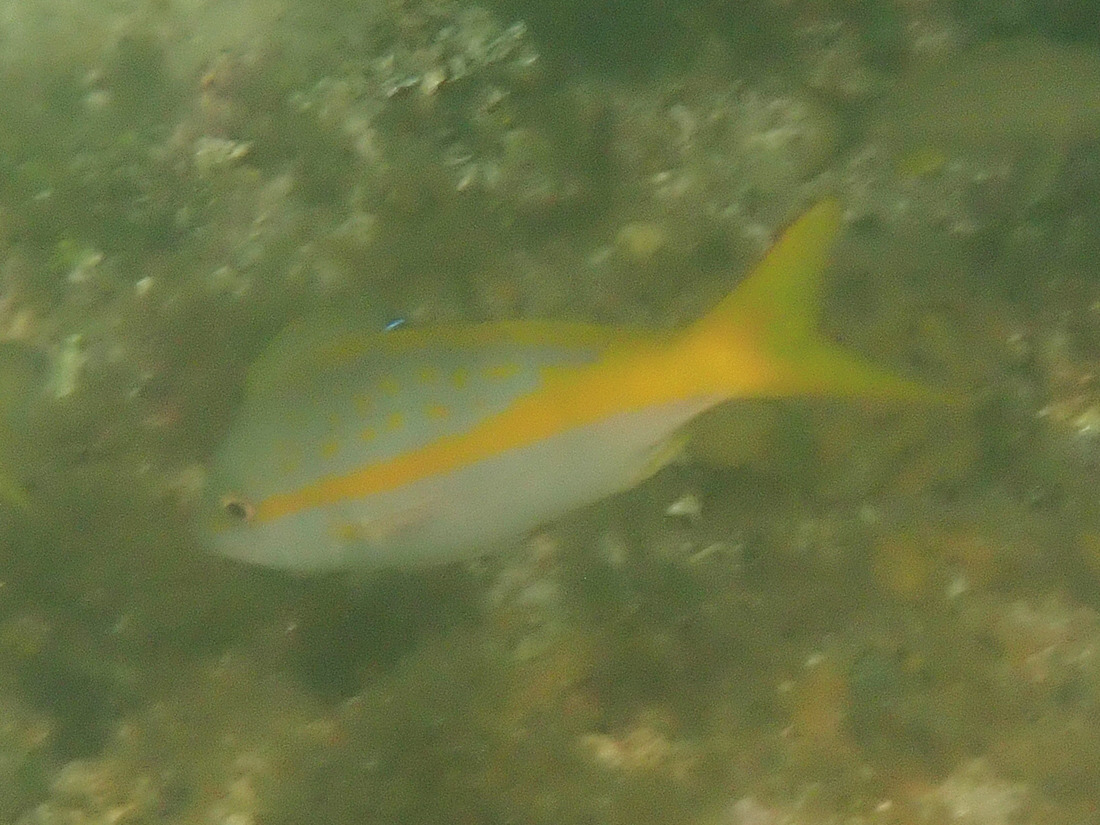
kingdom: Animalia
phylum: Chordata
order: Perciformes
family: Lutjanidae
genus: Ocyurus
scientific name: Ocyurus chrysurus
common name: Yellowtail snapper
